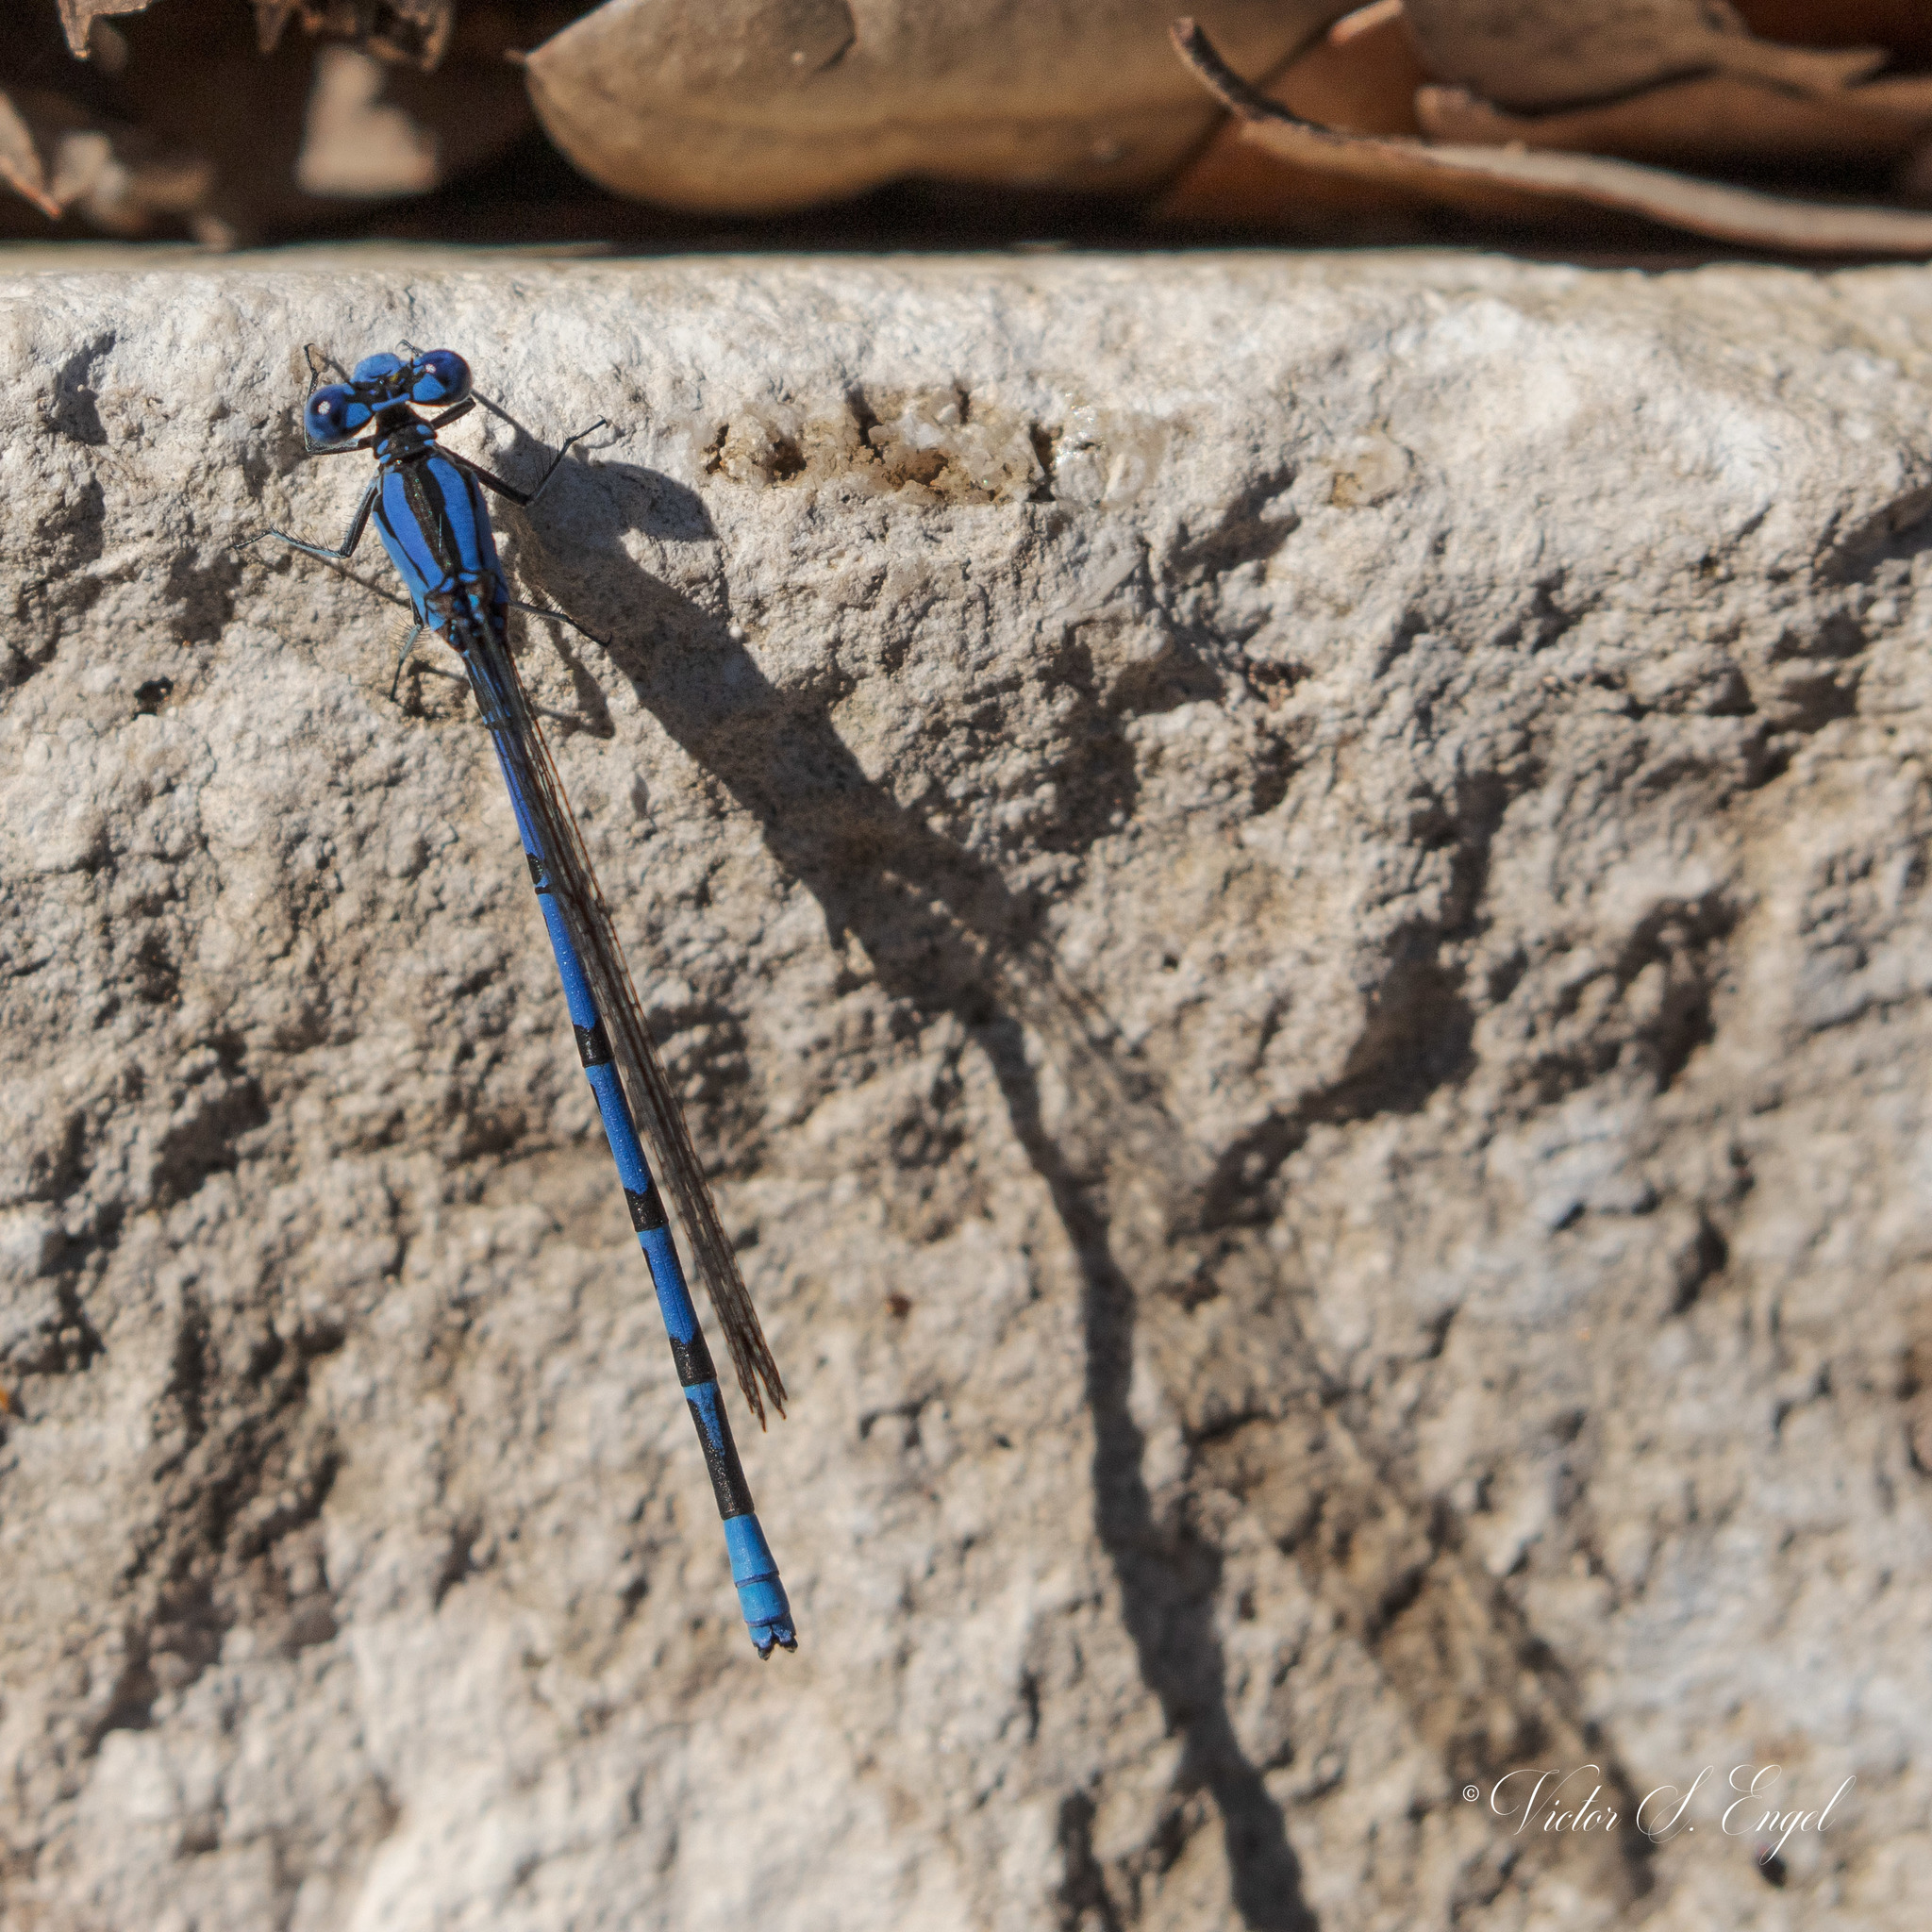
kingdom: Animalia
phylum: Arthropoda
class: Insecta
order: Odonata
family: Coenagrionidae
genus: Argia
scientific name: Argia funebris
